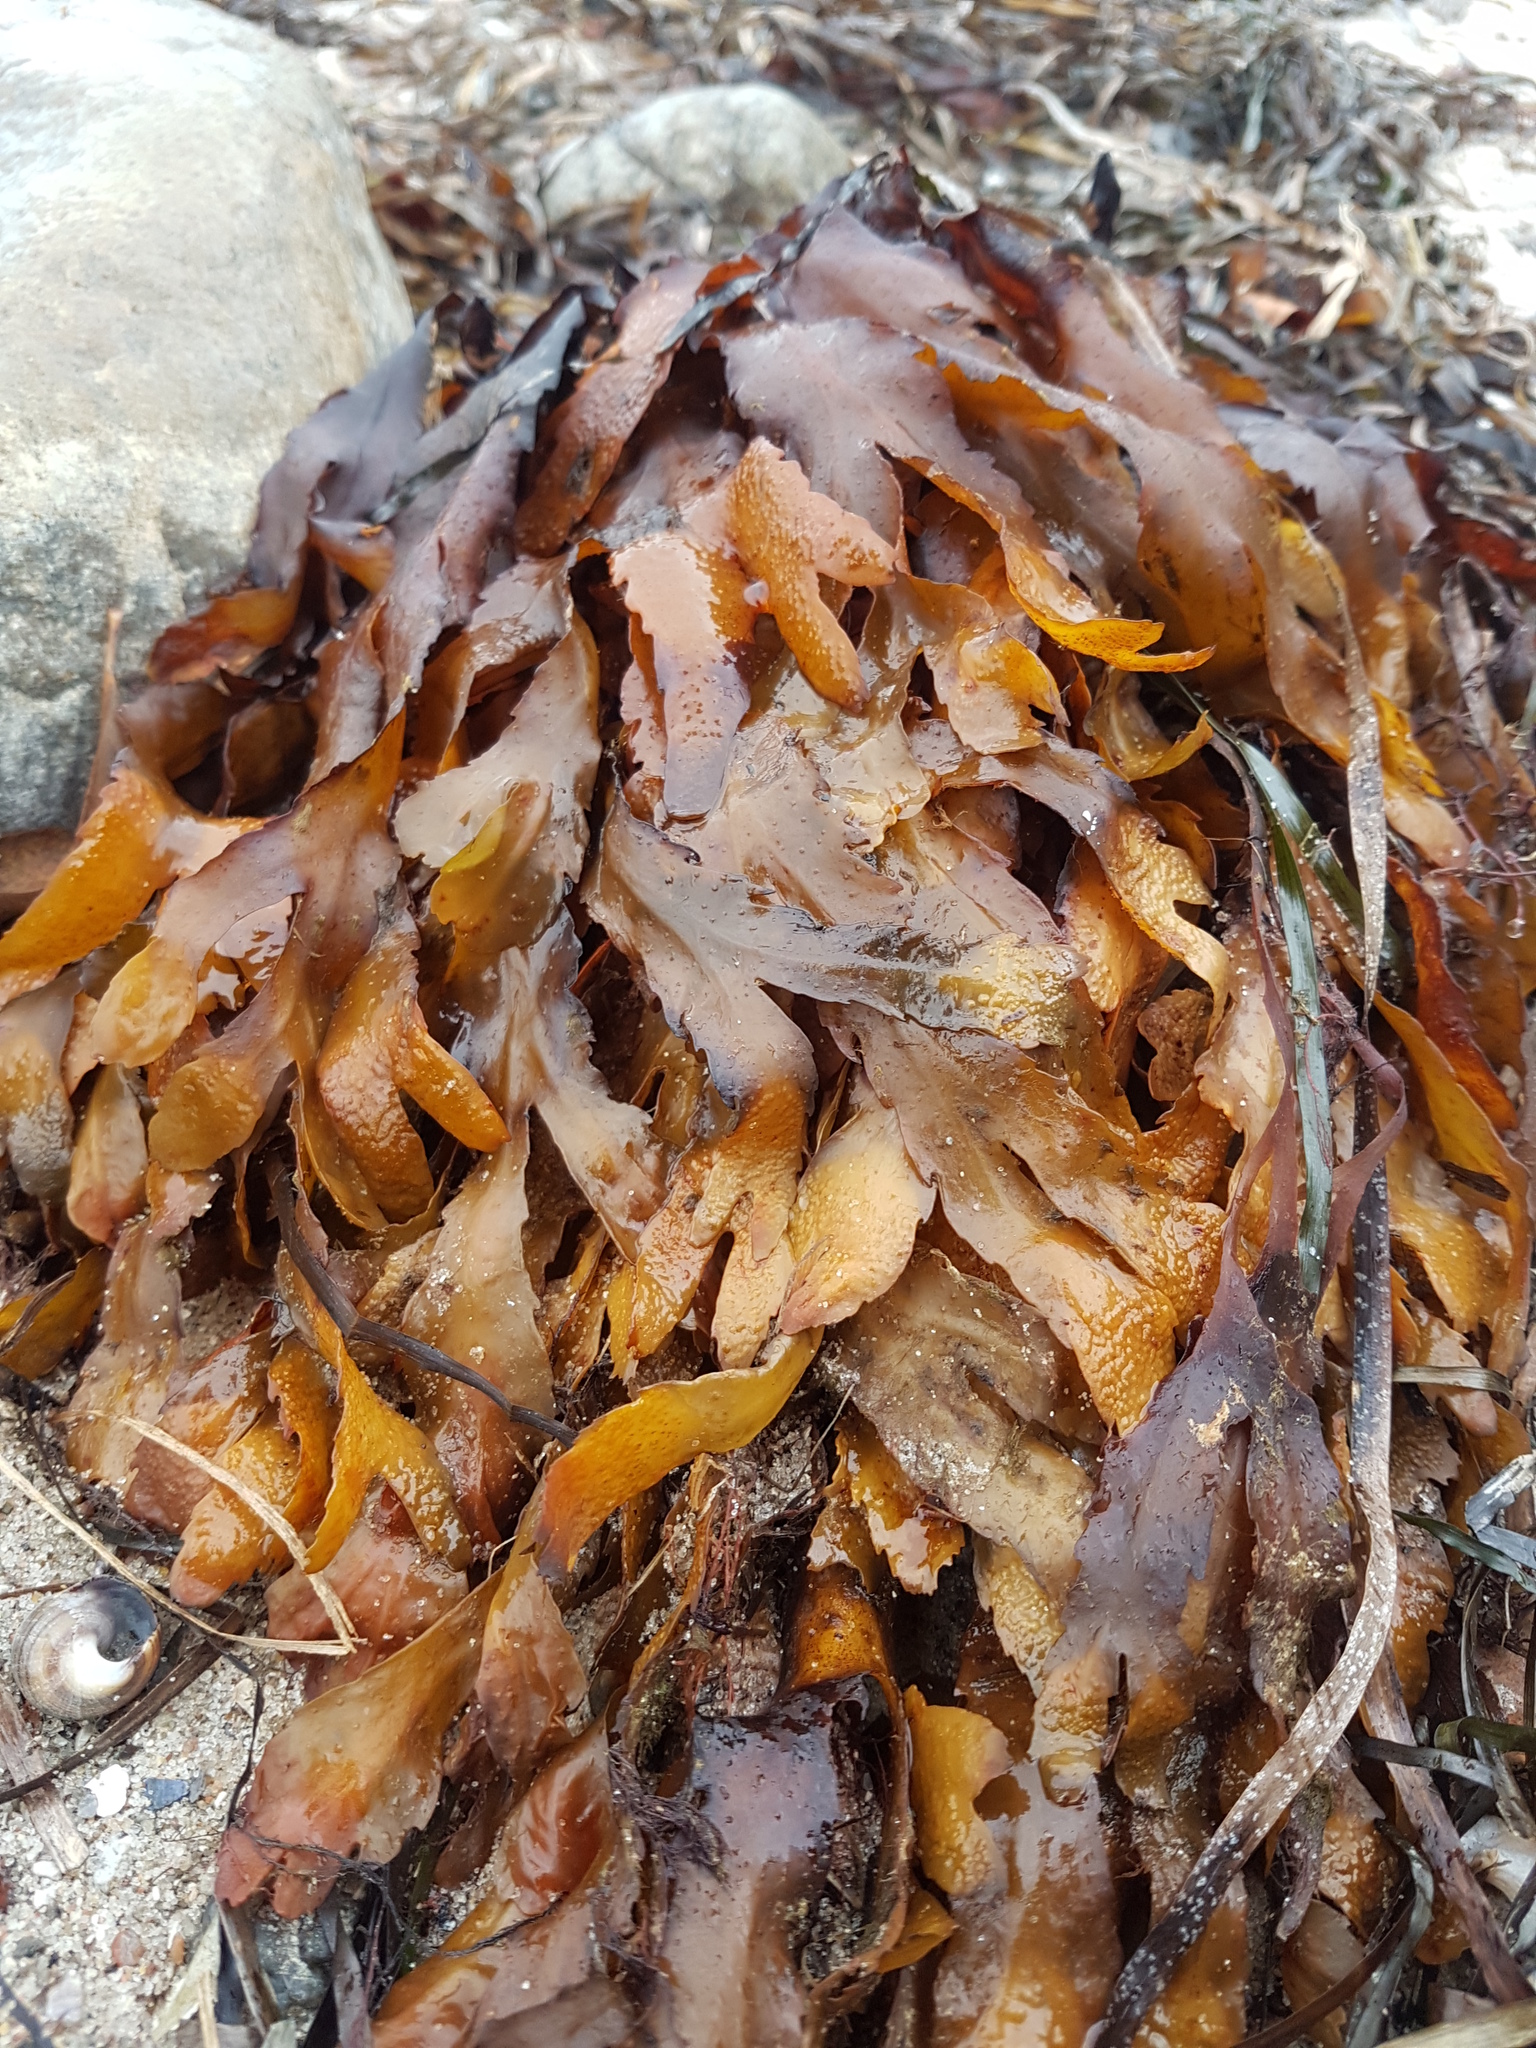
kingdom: Chromista
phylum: Ochrophyta
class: Phaeophyceae
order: Fucales
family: Fucaceae
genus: Fucus
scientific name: Fucus serratus
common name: Toothed wrack
